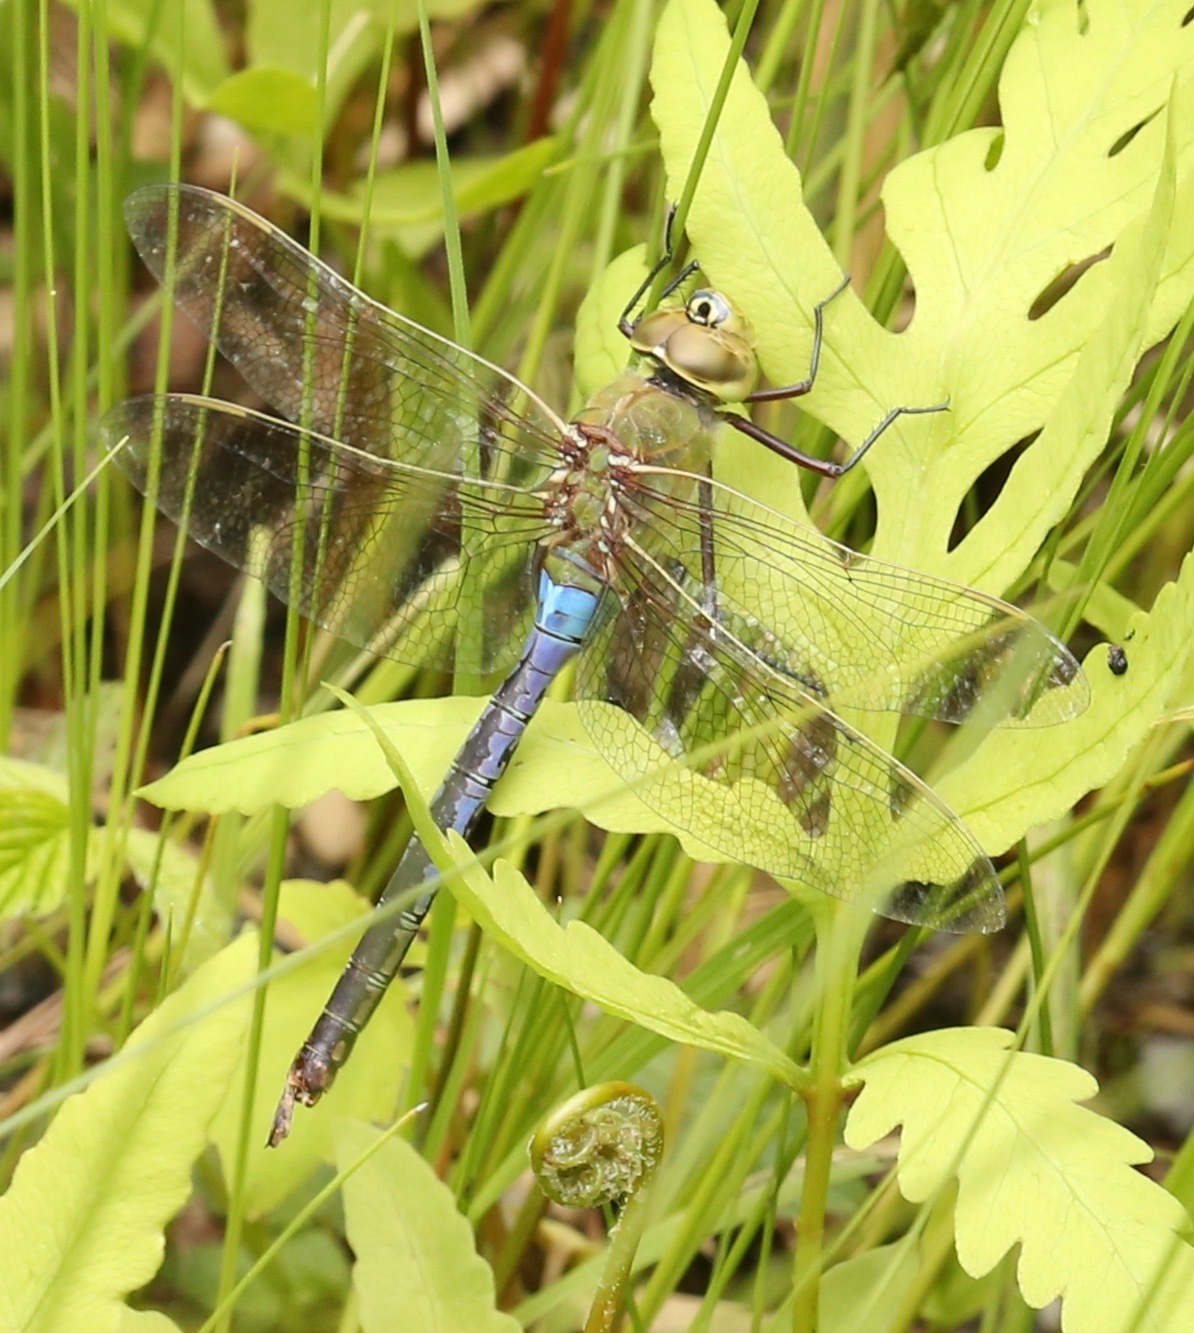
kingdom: Animalia
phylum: Arthropoda
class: Insecta
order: Odonata
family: Aeshnidae
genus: Anax
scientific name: Anax junius
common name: Common green darner
